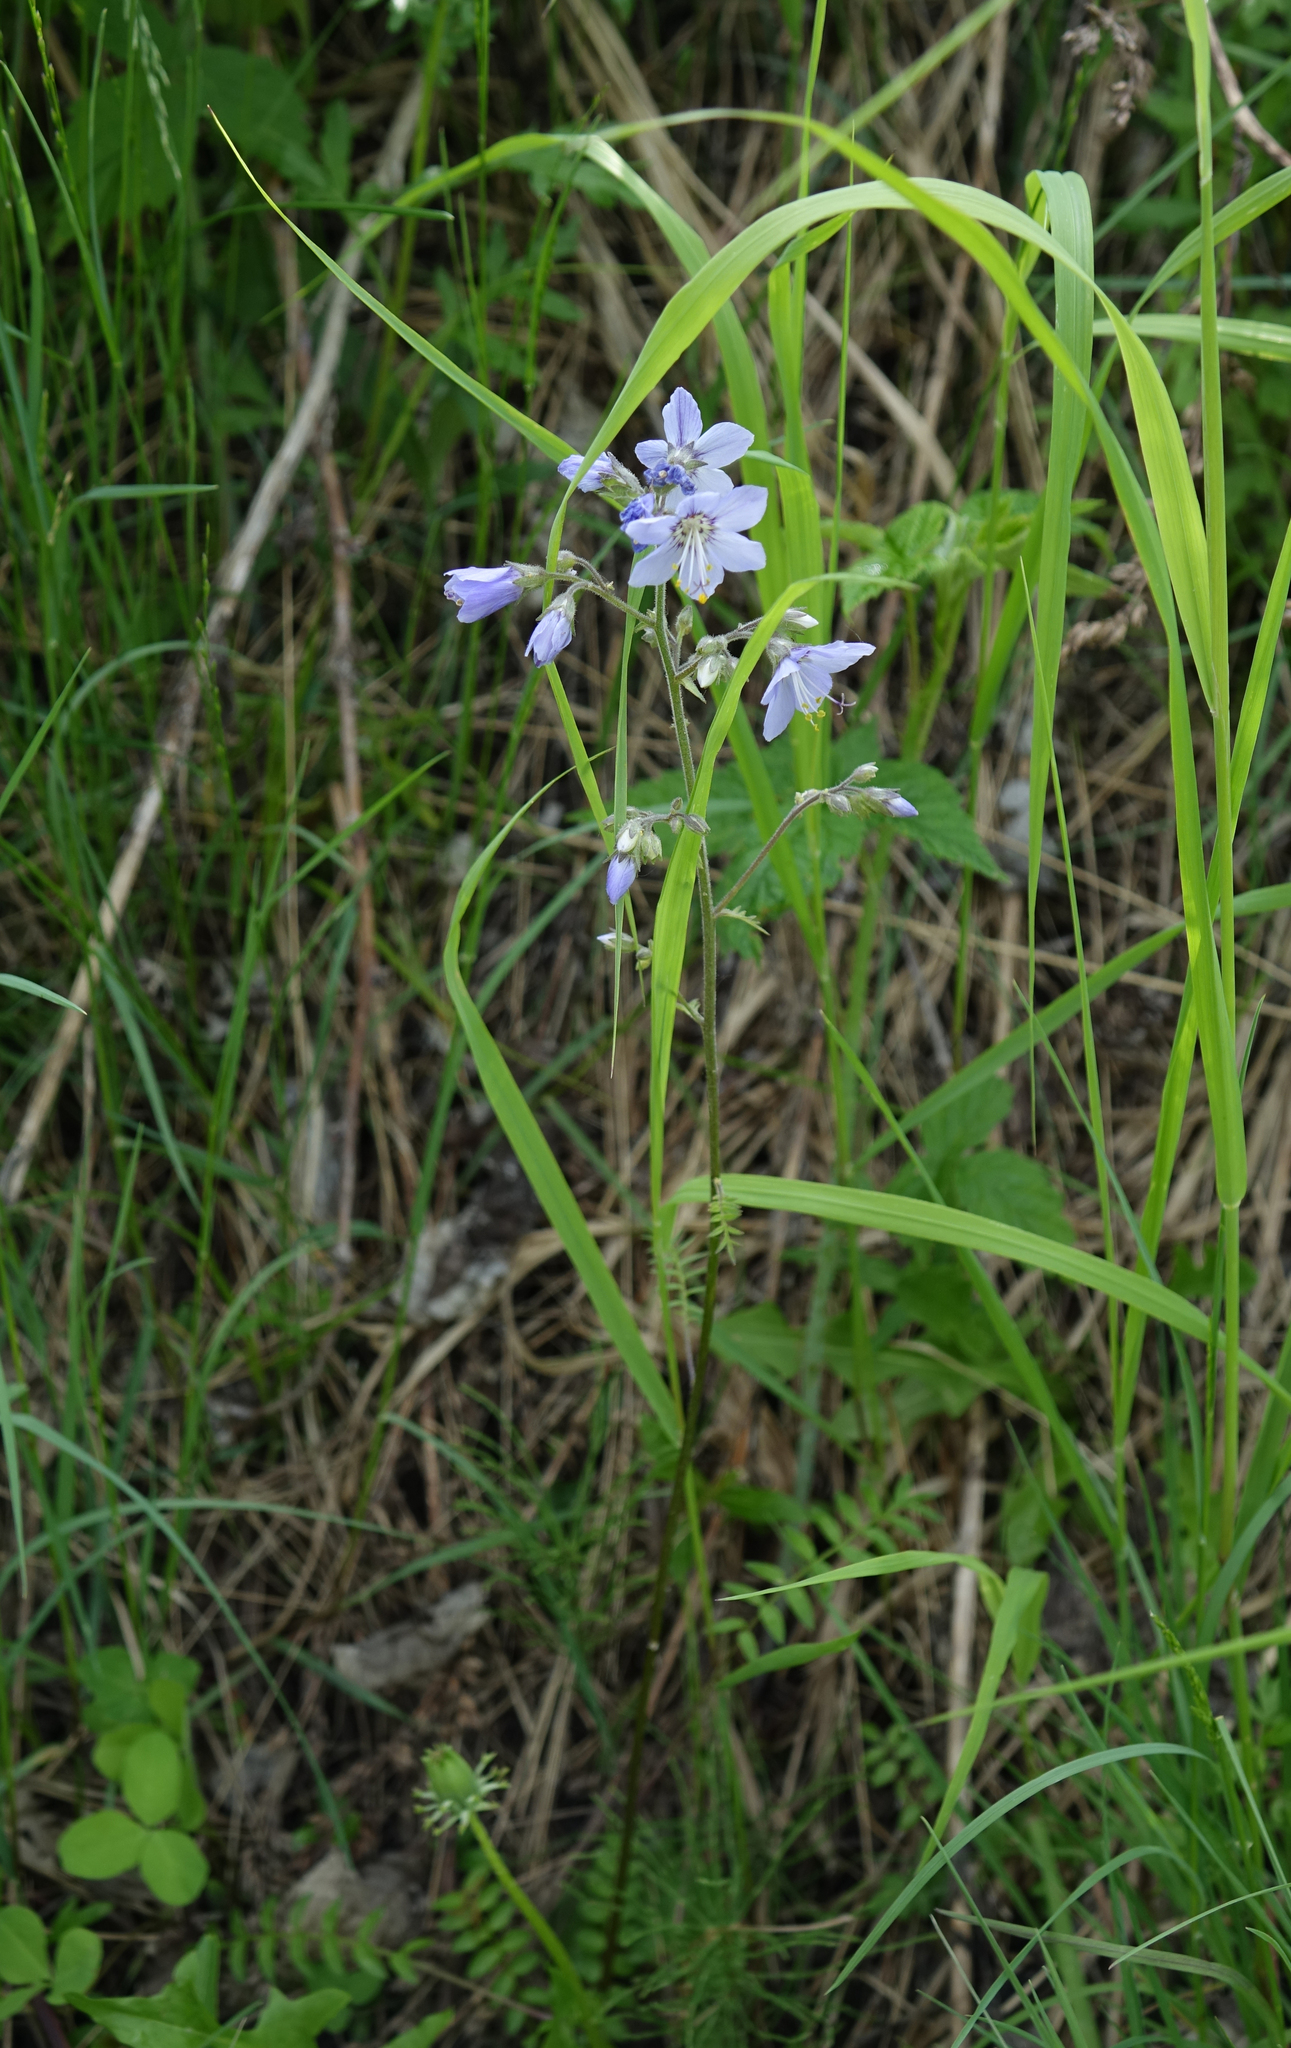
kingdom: Plantae
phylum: Tracheophyta
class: Magnoliopsida
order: Ericales
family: Polemoniaceae
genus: Polemonium
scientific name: Polemonium caeruleum
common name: Jacob's-ladder
